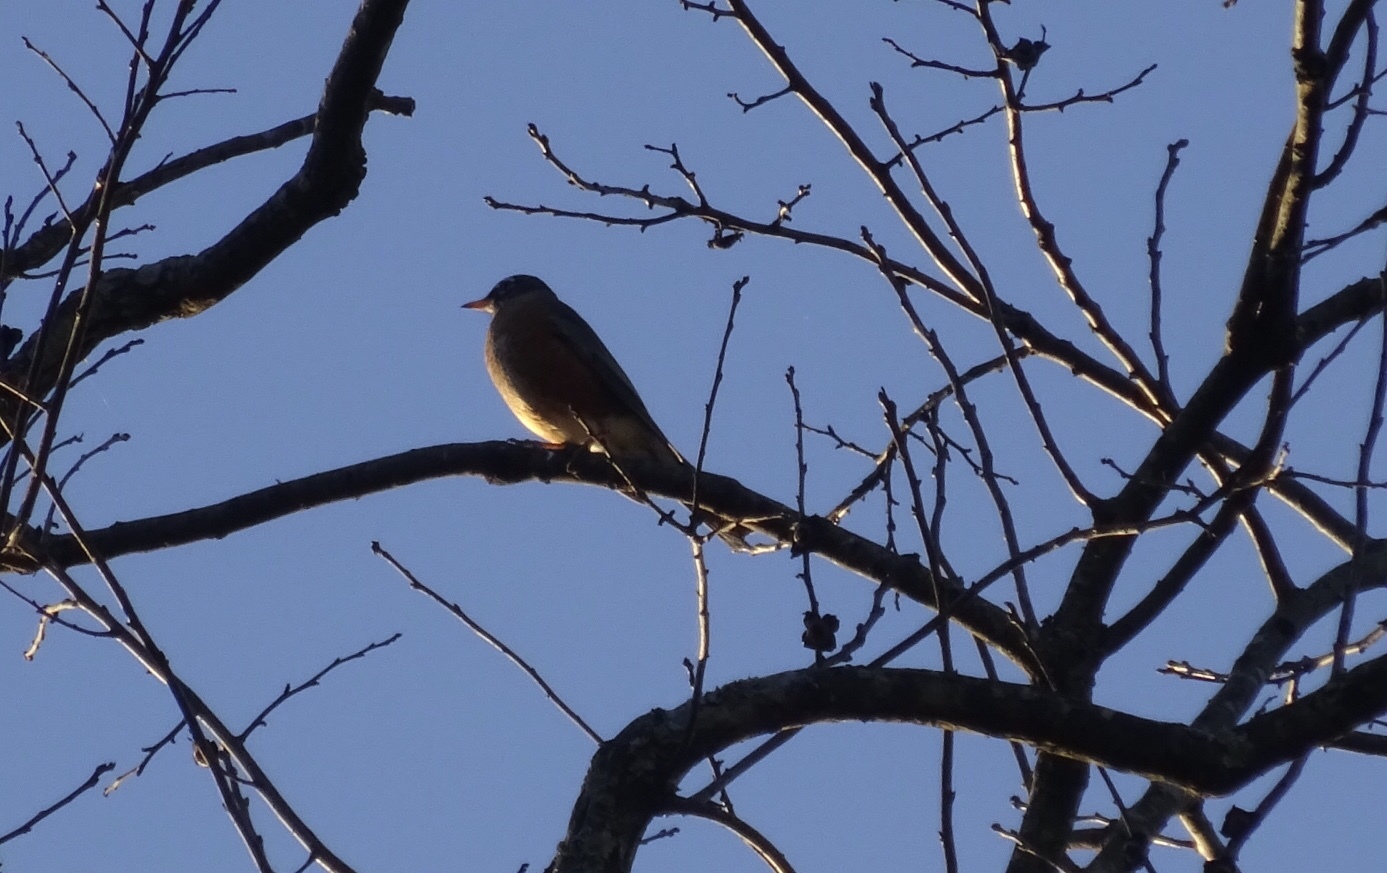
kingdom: Animalia
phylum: Chordata
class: Aves
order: Passeriformes
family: Turdidae
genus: Turdus
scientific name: Turdus migratorius
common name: American robin
